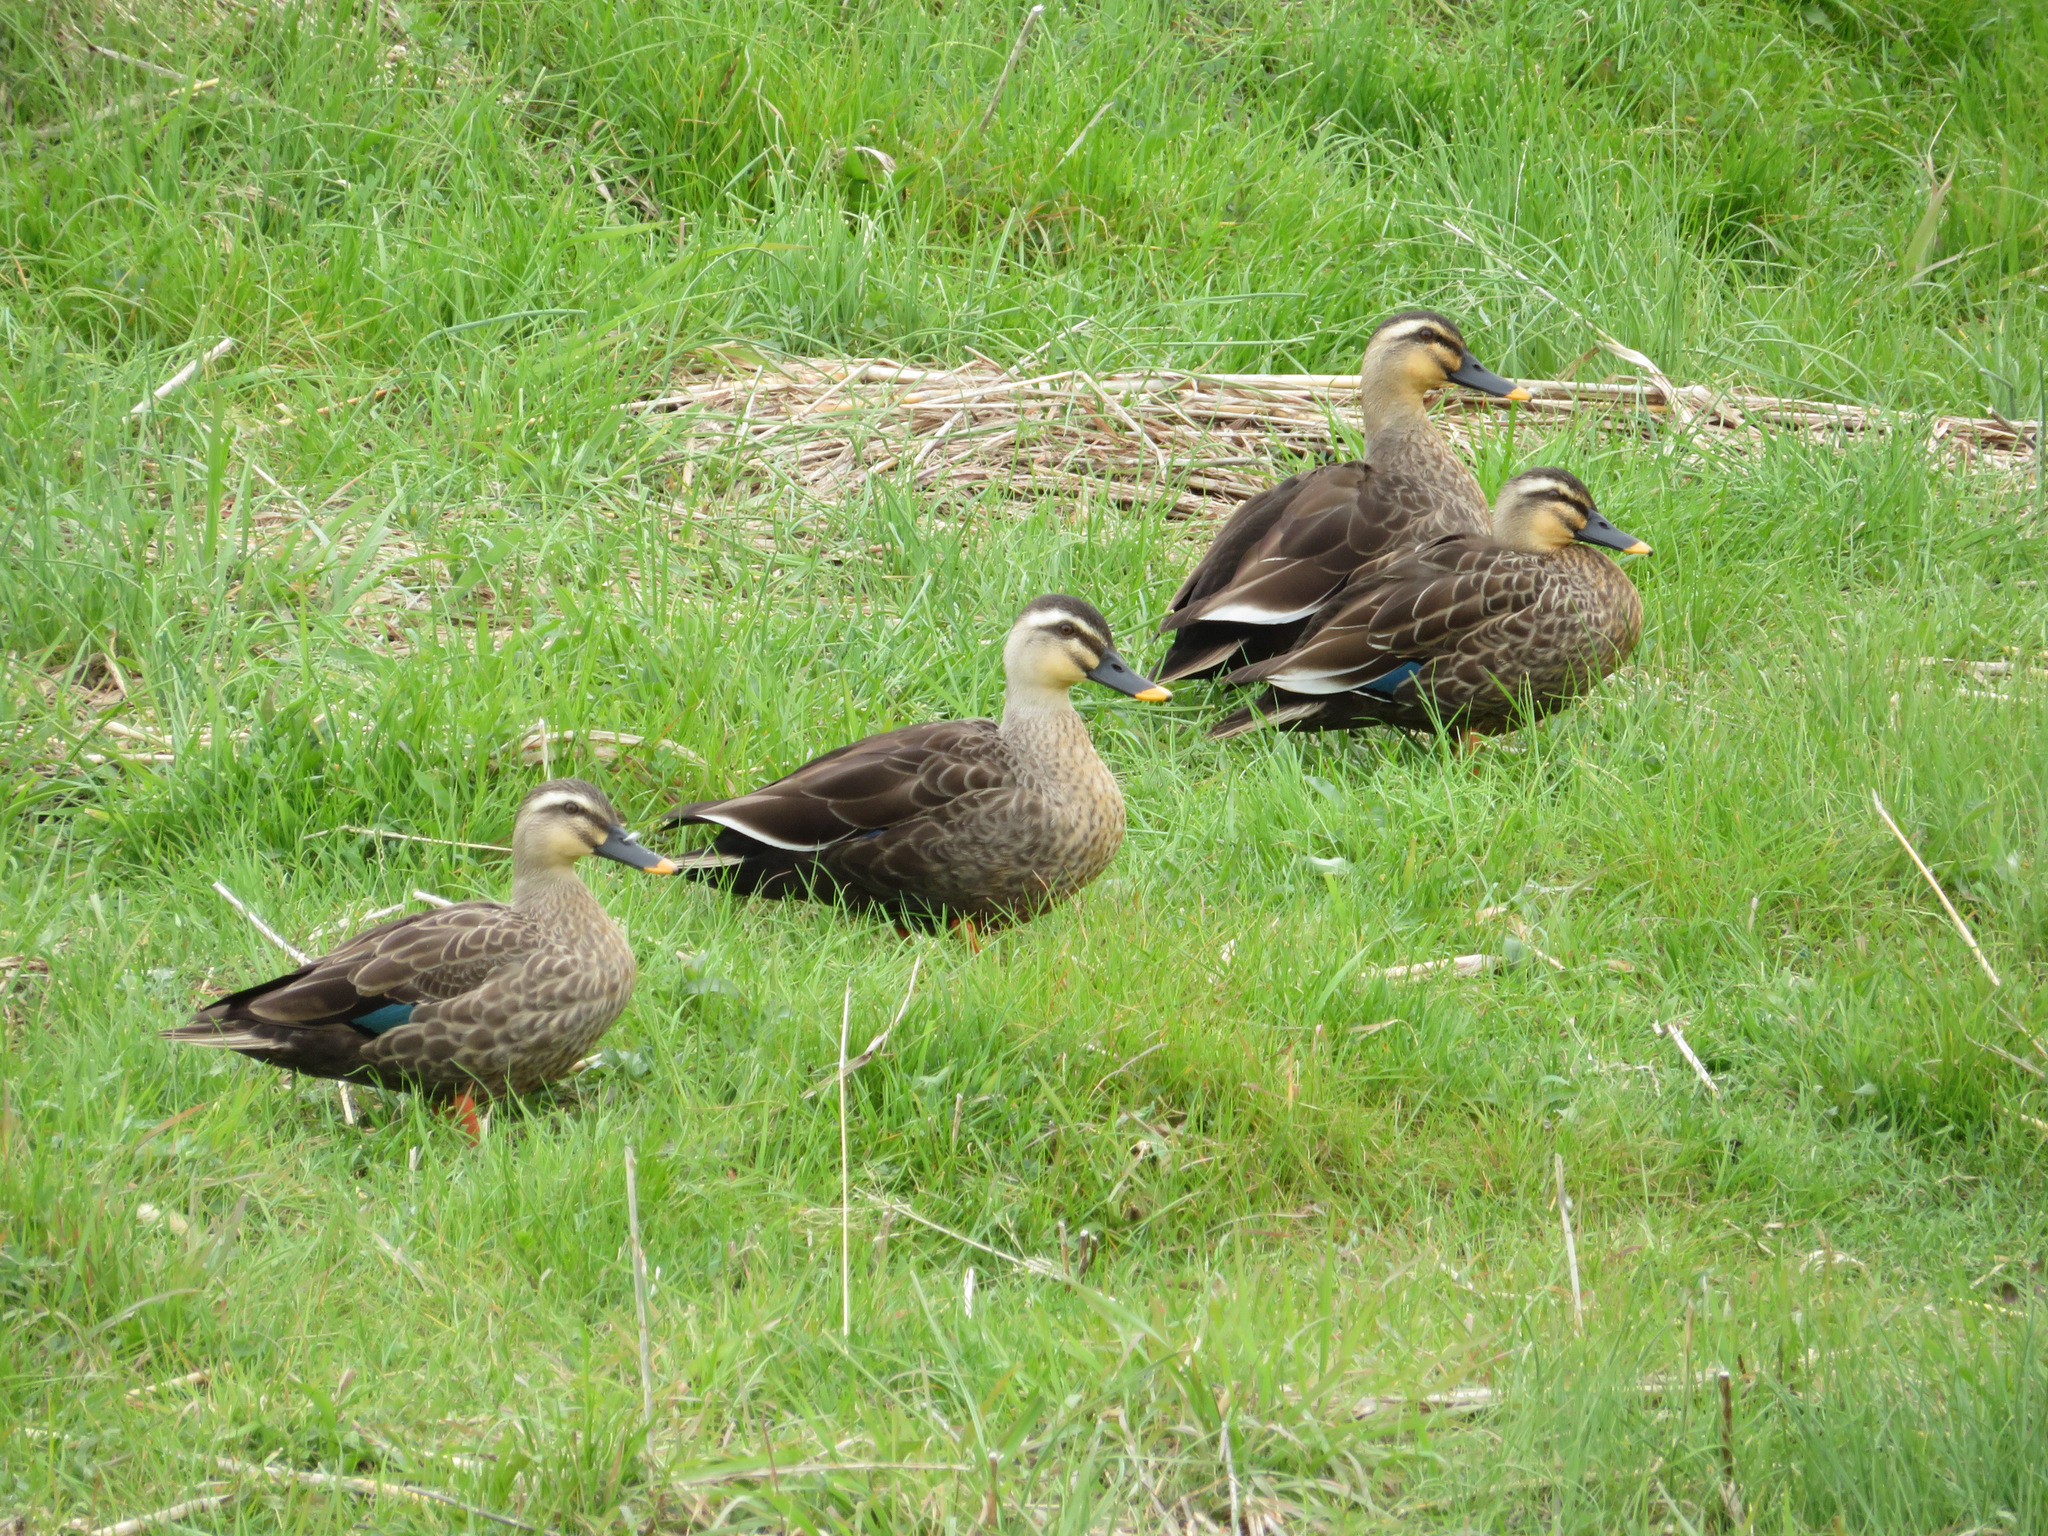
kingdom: Animalia
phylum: Chordata
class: Aves
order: Anseriformes
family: Anatidae
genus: Anas
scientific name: Anas zonorhyncha
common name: Eastern spot-billed duck
